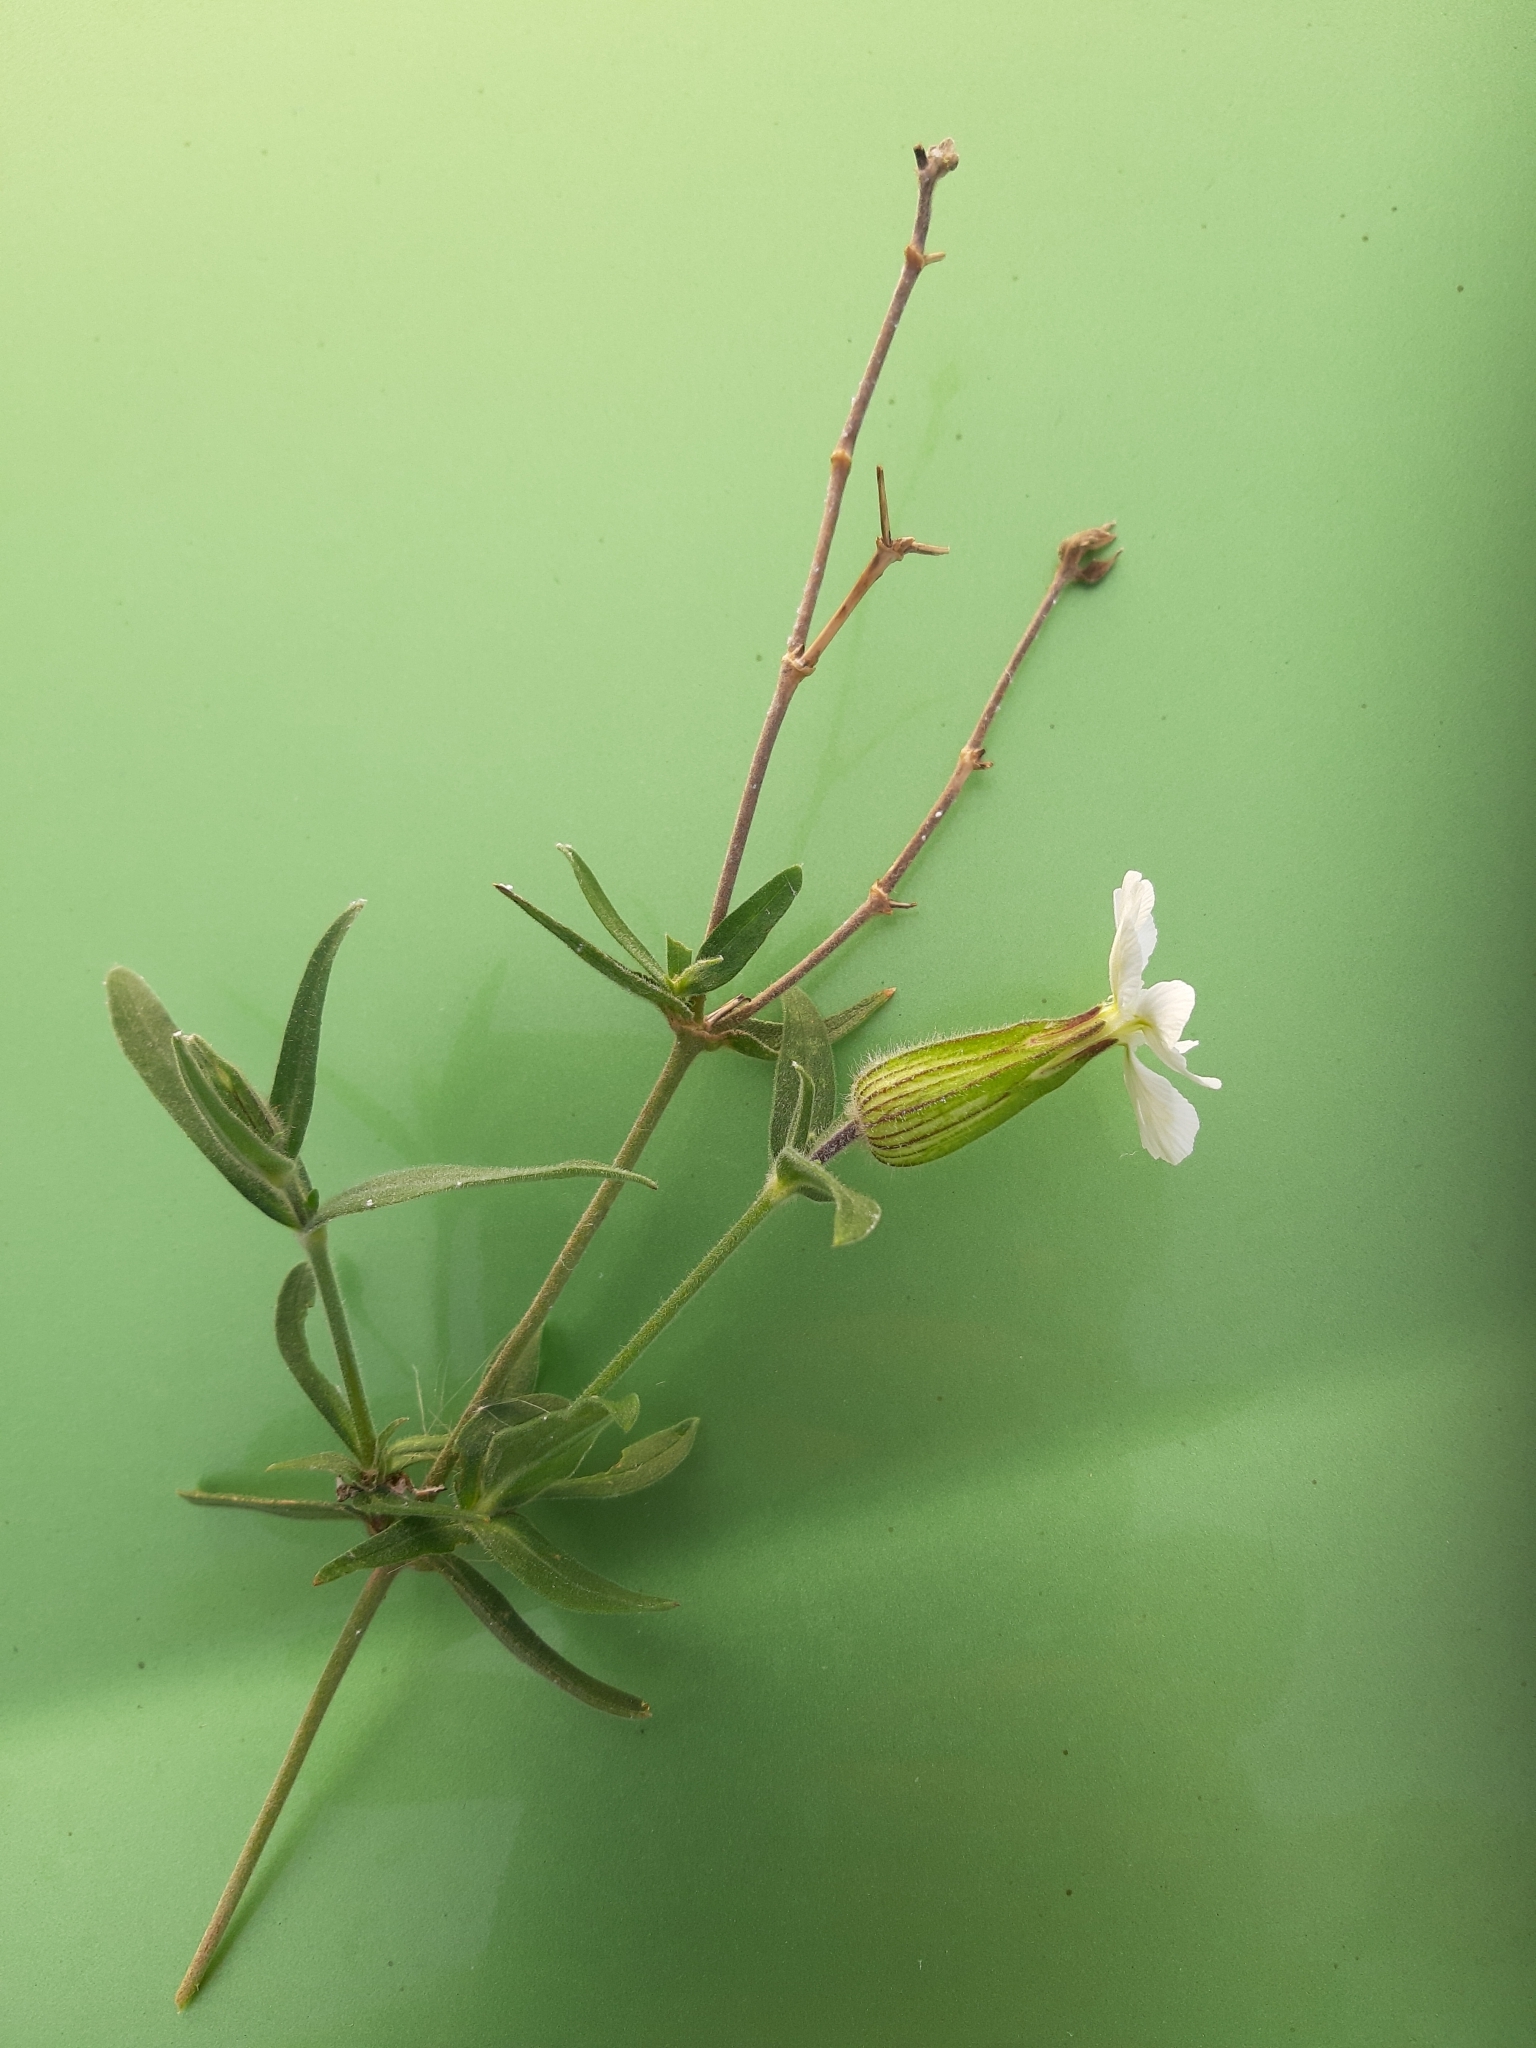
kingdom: Plantae
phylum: Tracheophyta
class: Magnoliopsida
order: Caryophyllales
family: Caryophyllaceae
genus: Silene
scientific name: Silene latifolia
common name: White campion
